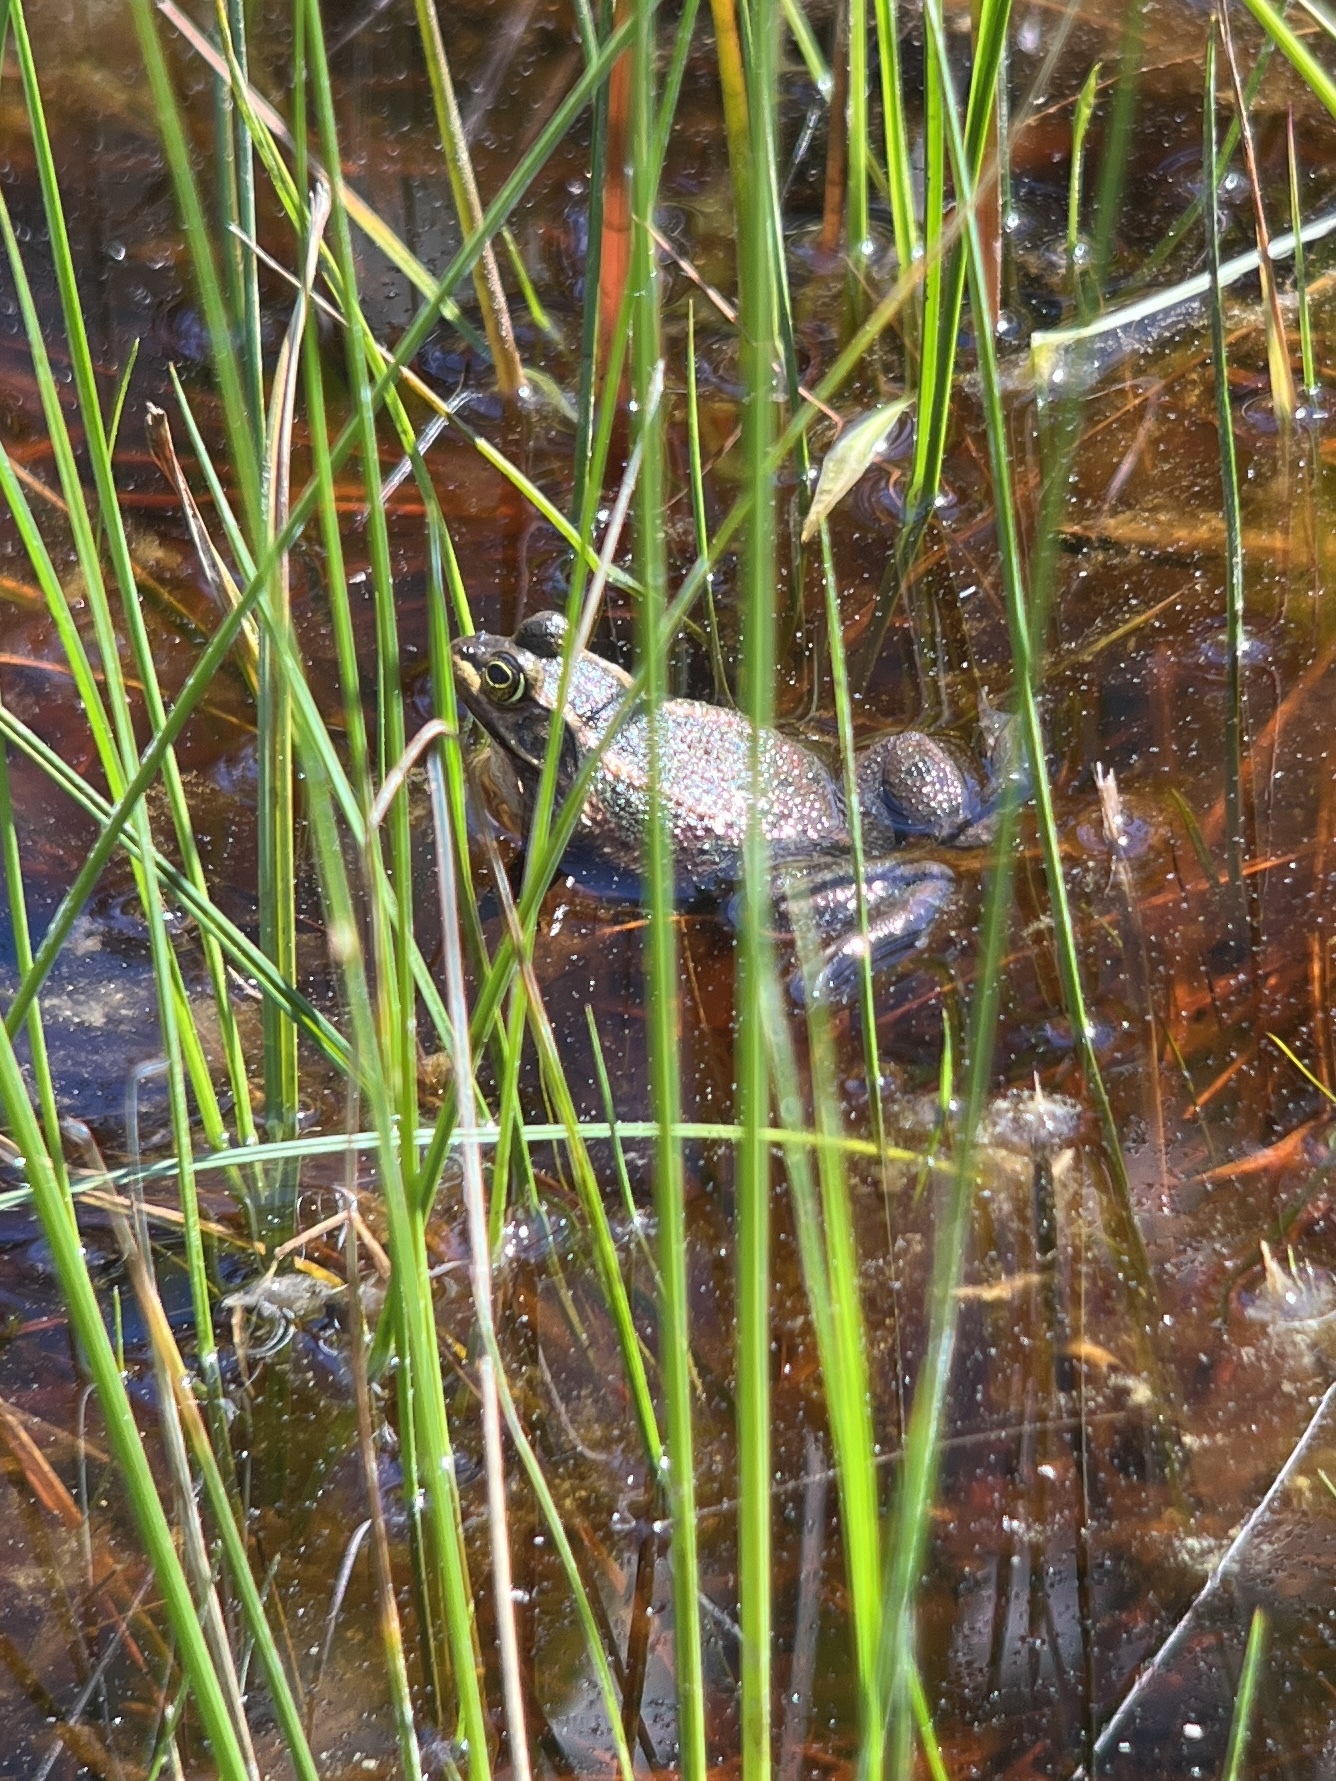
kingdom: Animalia
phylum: Chordata
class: Amphibia
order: Anura
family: Ranidae
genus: Lithobates
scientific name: Lithobates virgatipes
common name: Carpenter frog
